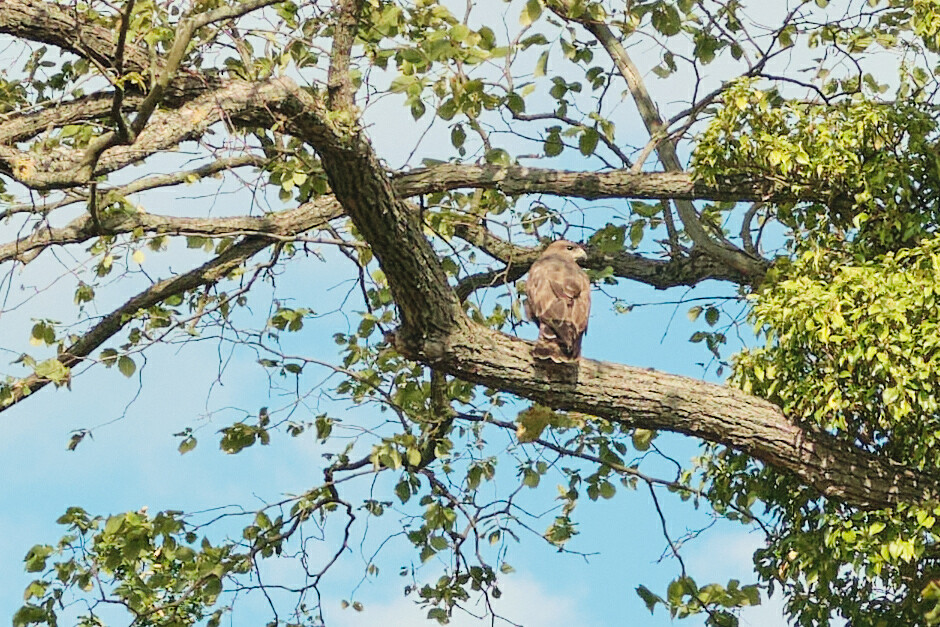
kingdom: Animalia
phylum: Chordata
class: Aves
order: Accipitriformes
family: Accipitridae
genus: Buteo
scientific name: Buteo buteo
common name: Common buzzard
